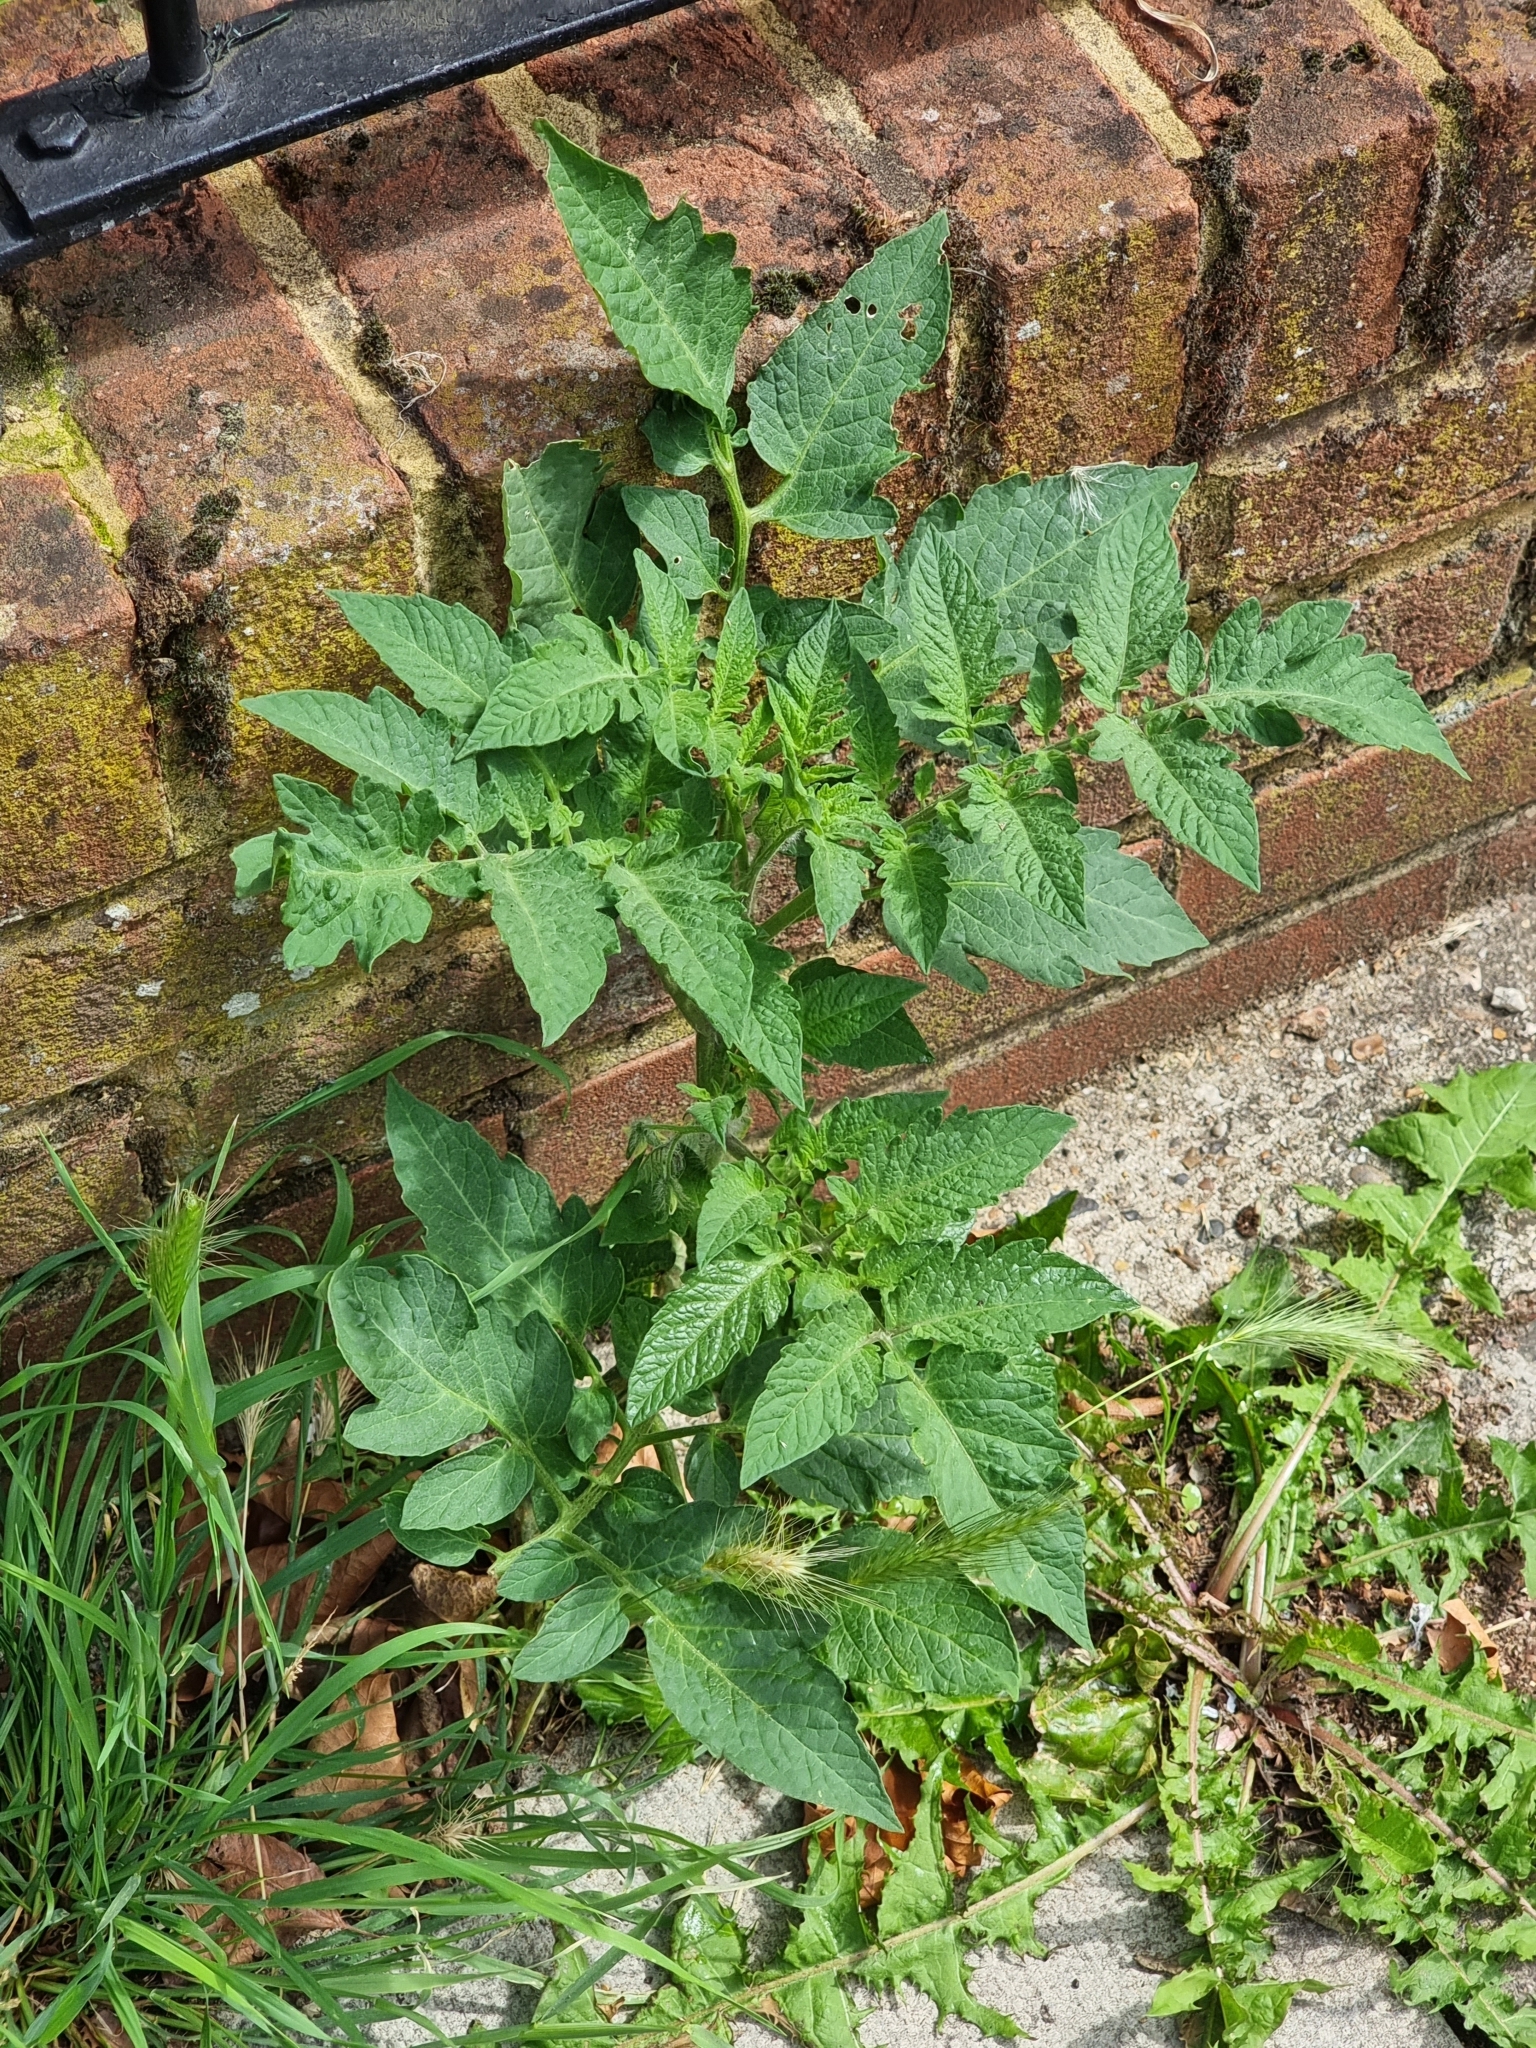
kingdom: Plantae
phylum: Tracheophyta
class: Magnoliopsida
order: Solanales
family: Solanaceae
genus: Solanum
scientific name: Solanum lycopersicum
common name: Garden tomato
